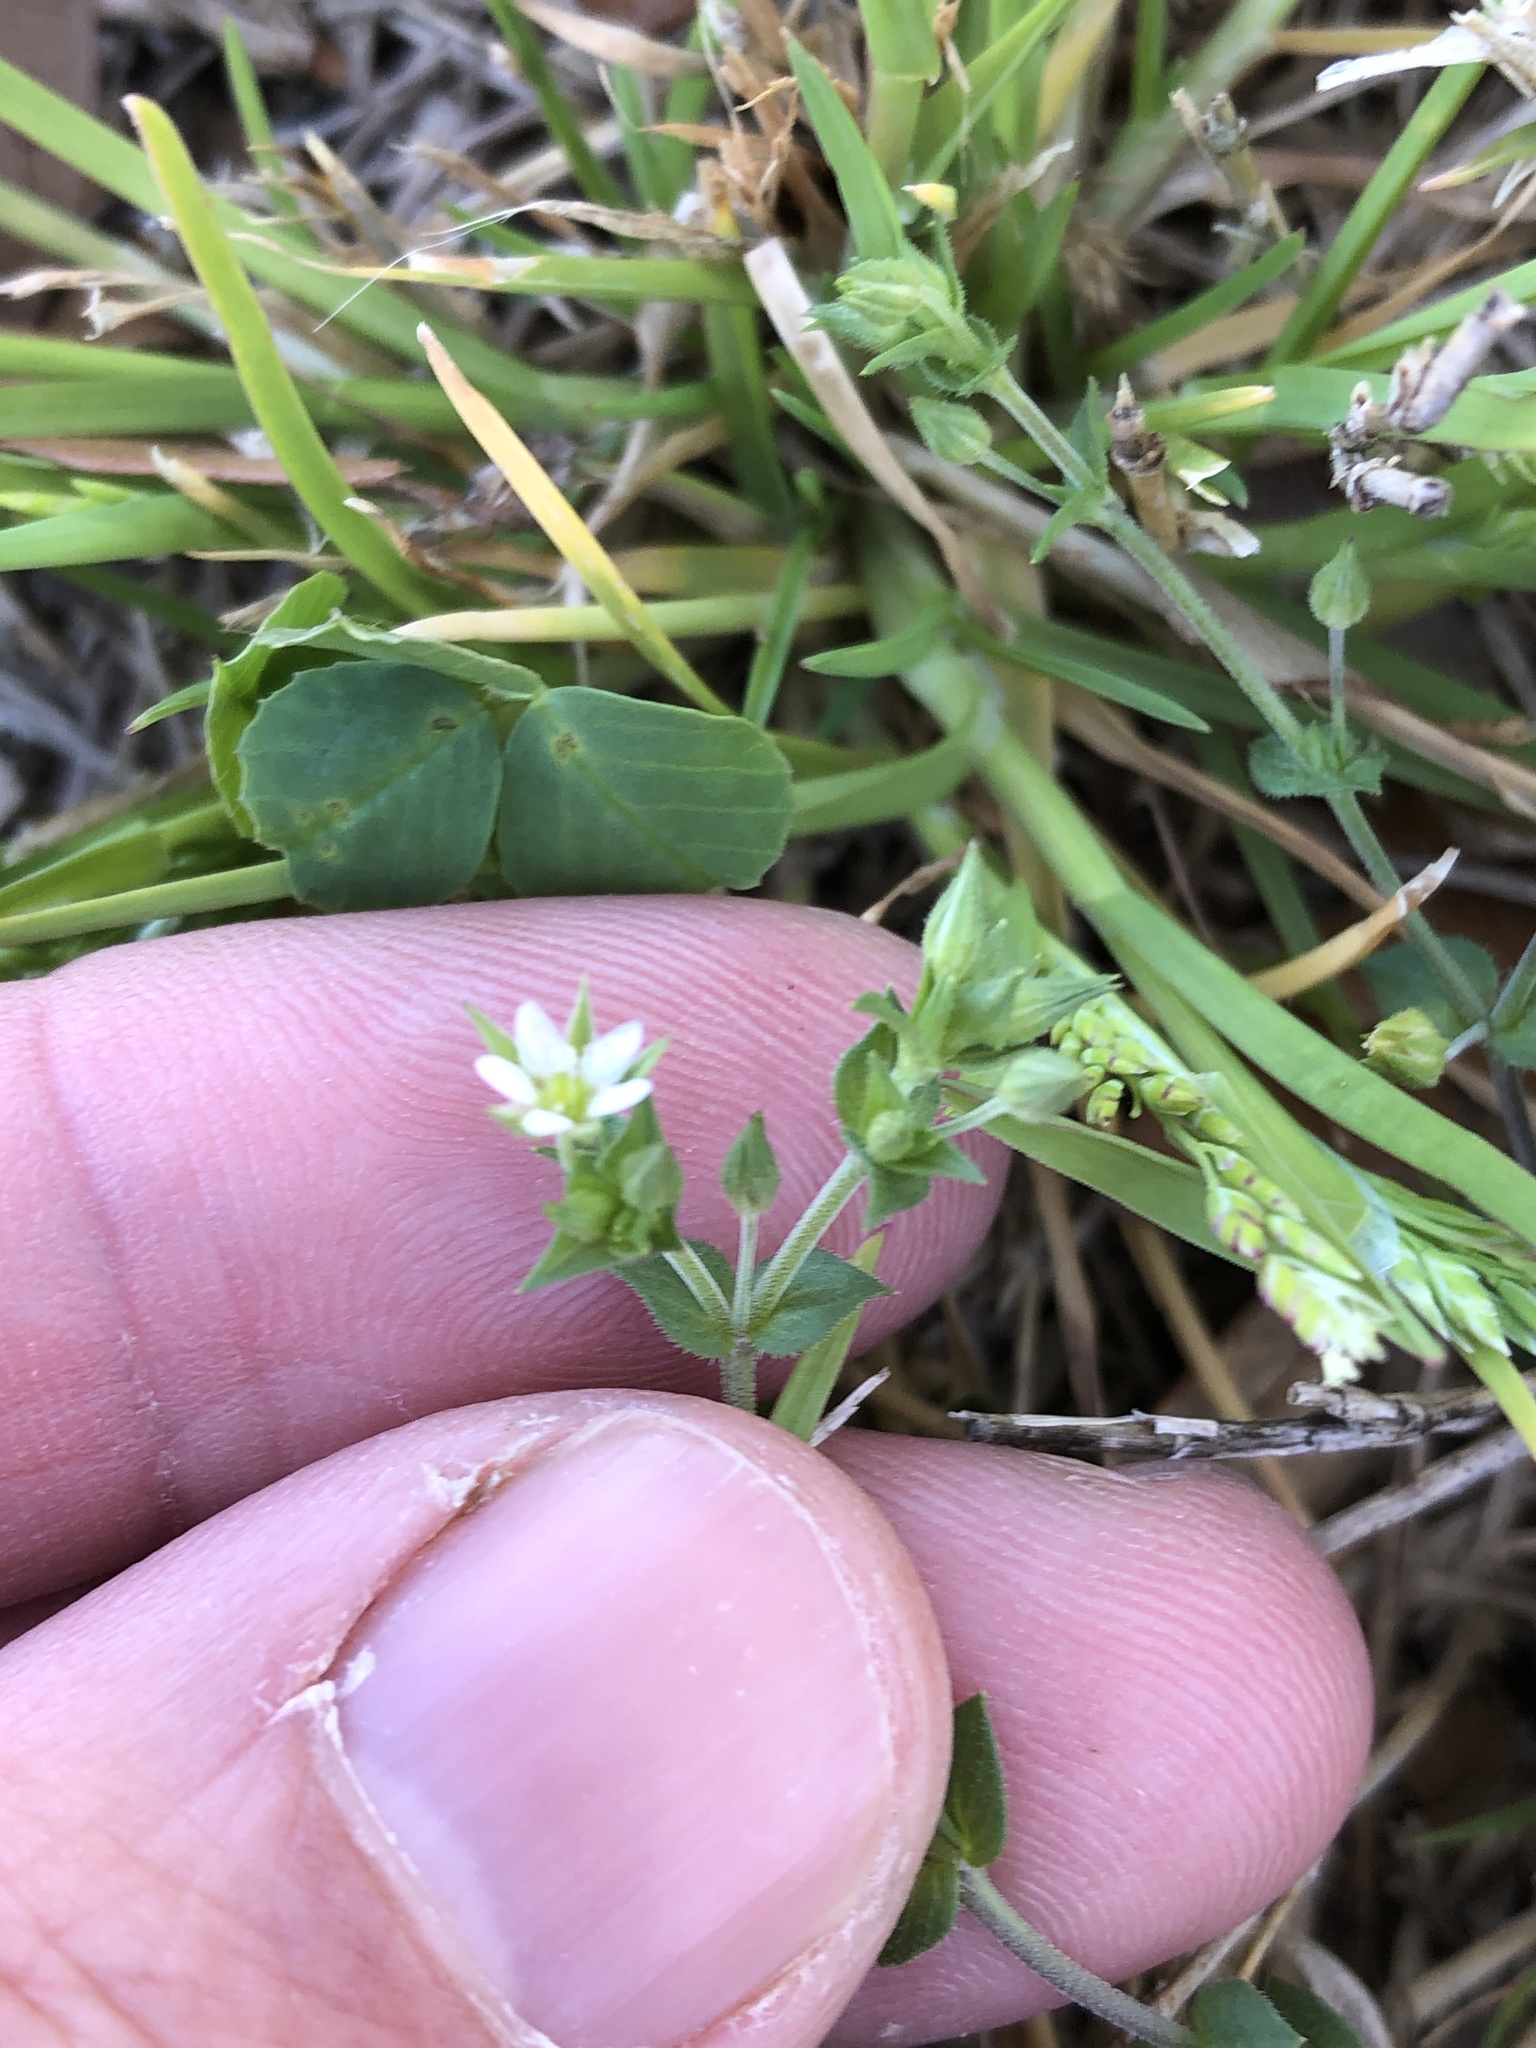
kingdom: Plantae
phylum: Tracheophyta
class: Magnoliopsida
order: Caryophyllales
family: Caryophyllaceae
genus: Arenaria
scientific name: Arenaria serpyllifolia
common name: Thyme-leaved sandwort
